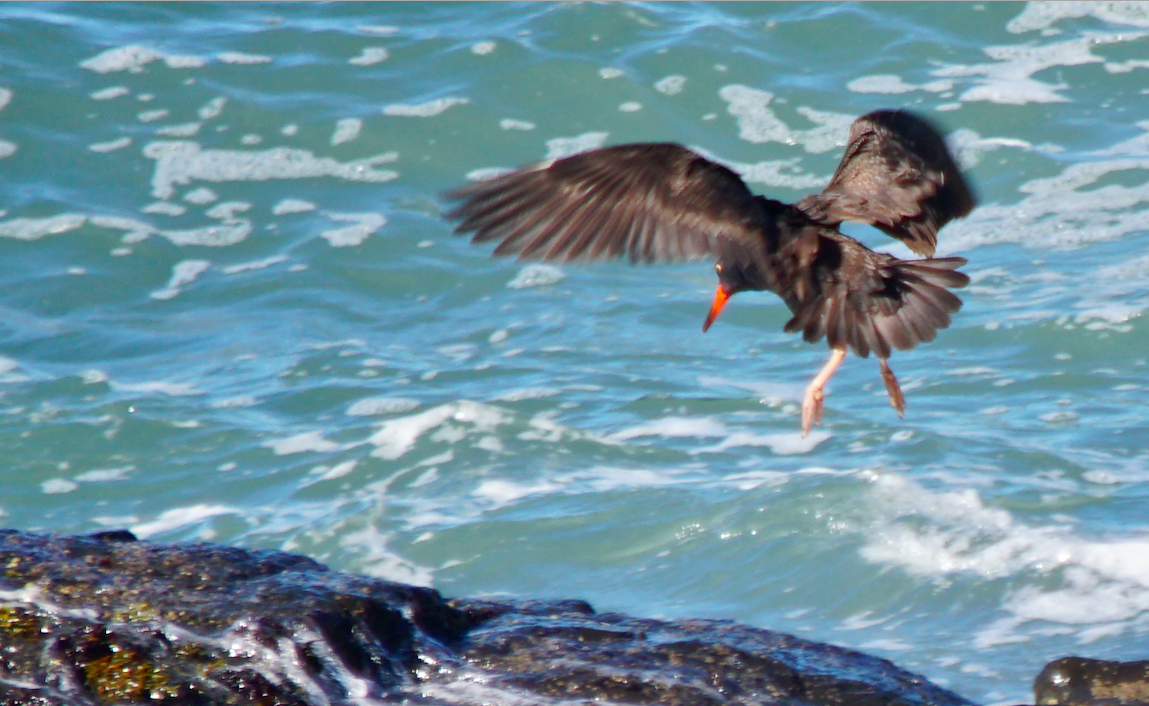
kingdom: Animalia
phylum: Chordata
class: Aves
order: Charadriiformes
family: Haematopodidae
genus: Haematopus
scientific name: Haematopus bachmani
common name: Black oystercatcher
